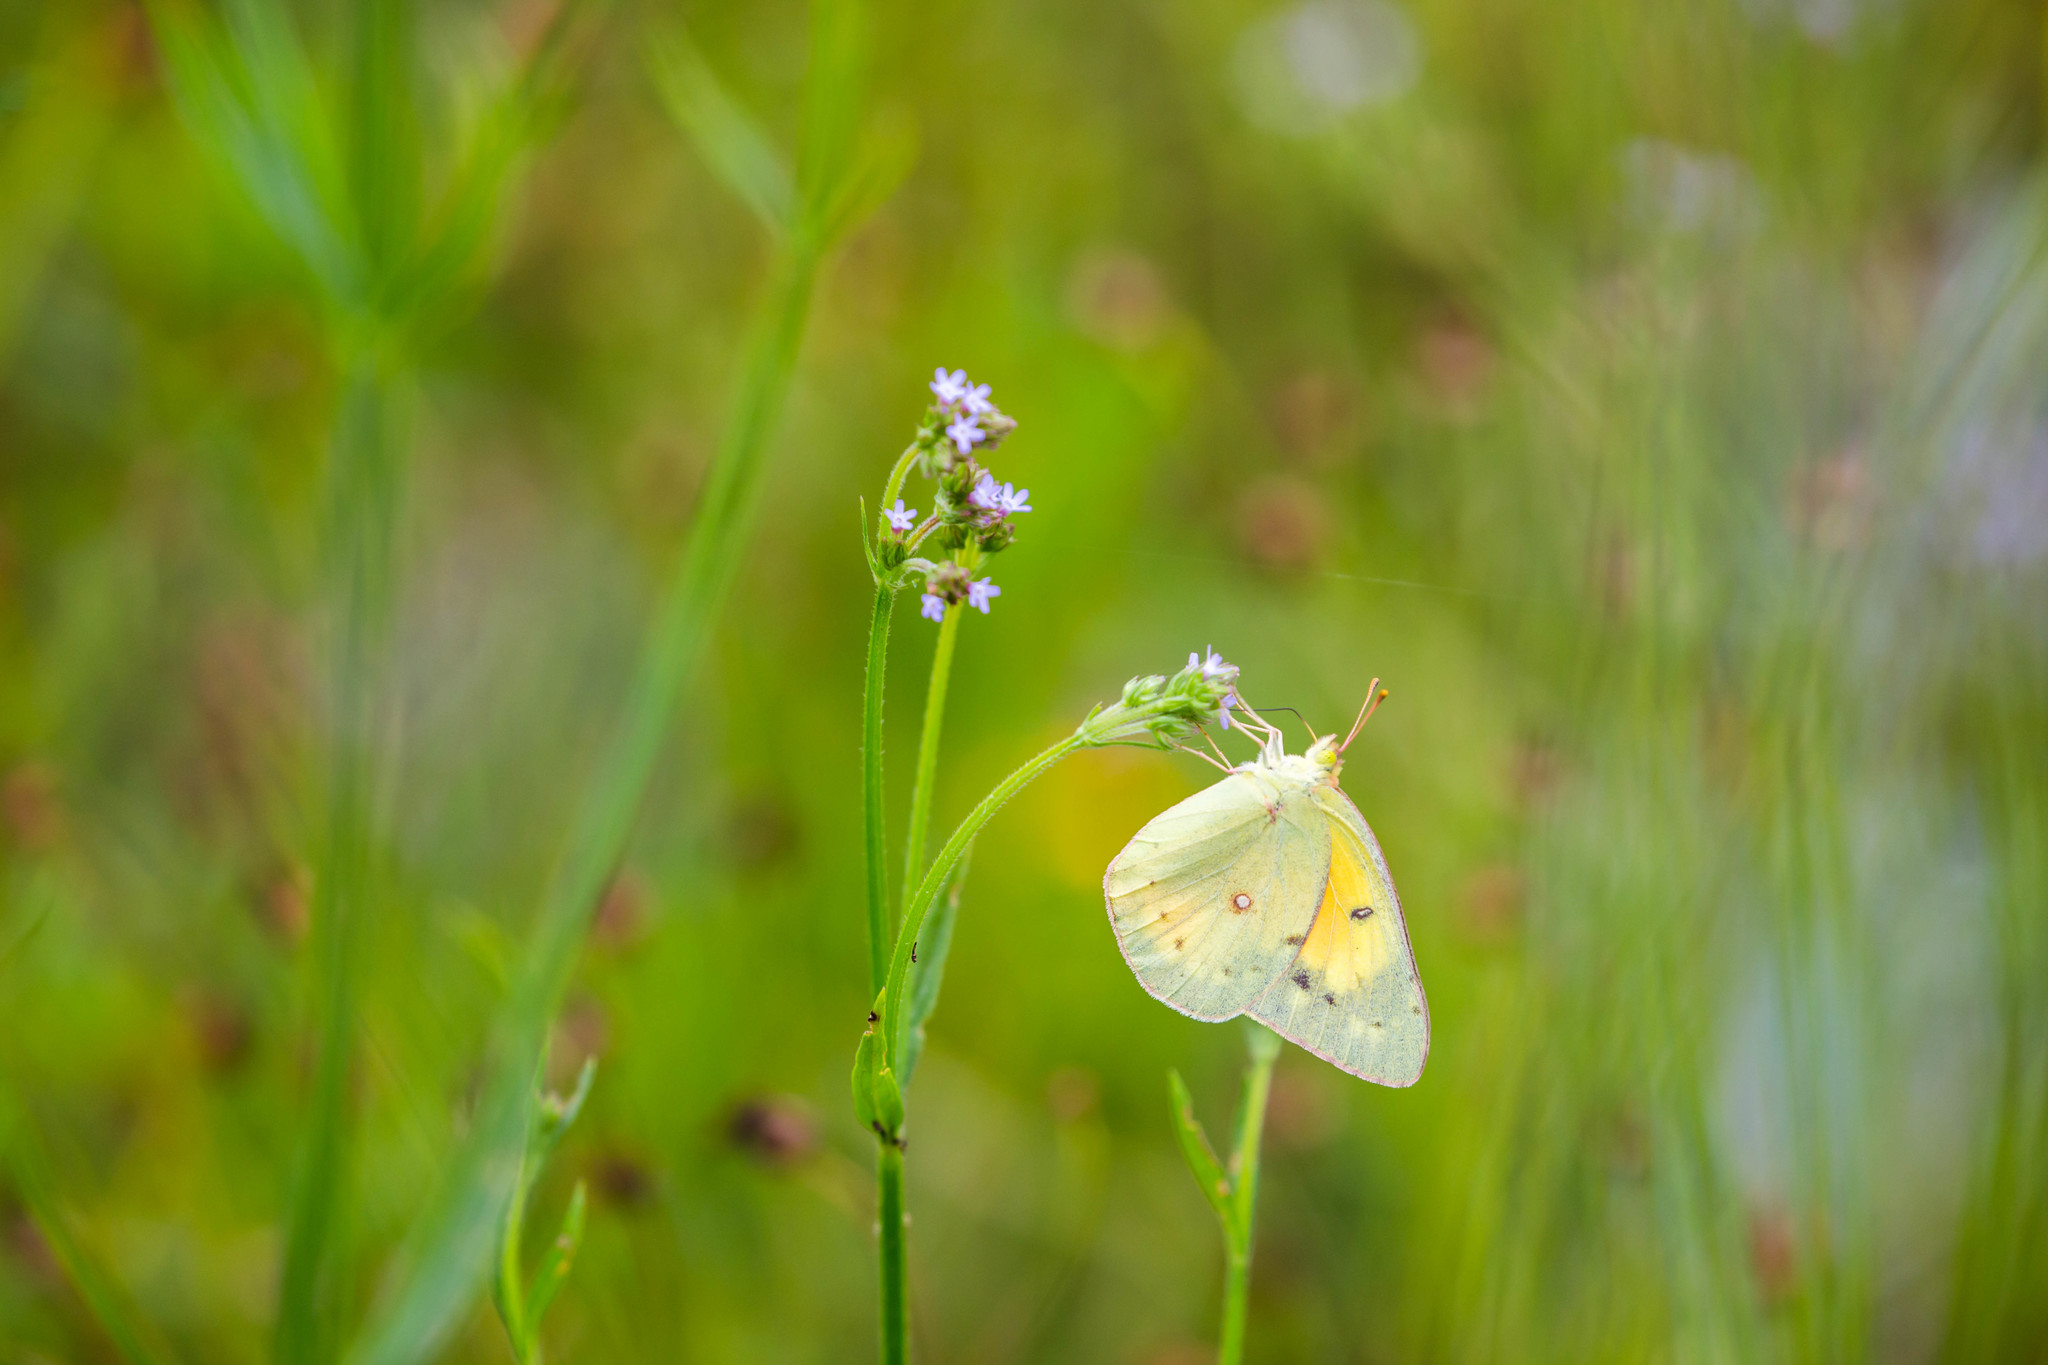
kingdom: Animalia
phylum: Arthropoda
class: Insecta
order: Lepidoptera
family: Pieridae
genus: Colias
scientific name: Colias eurytheme
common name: Alfalfa butterfly
